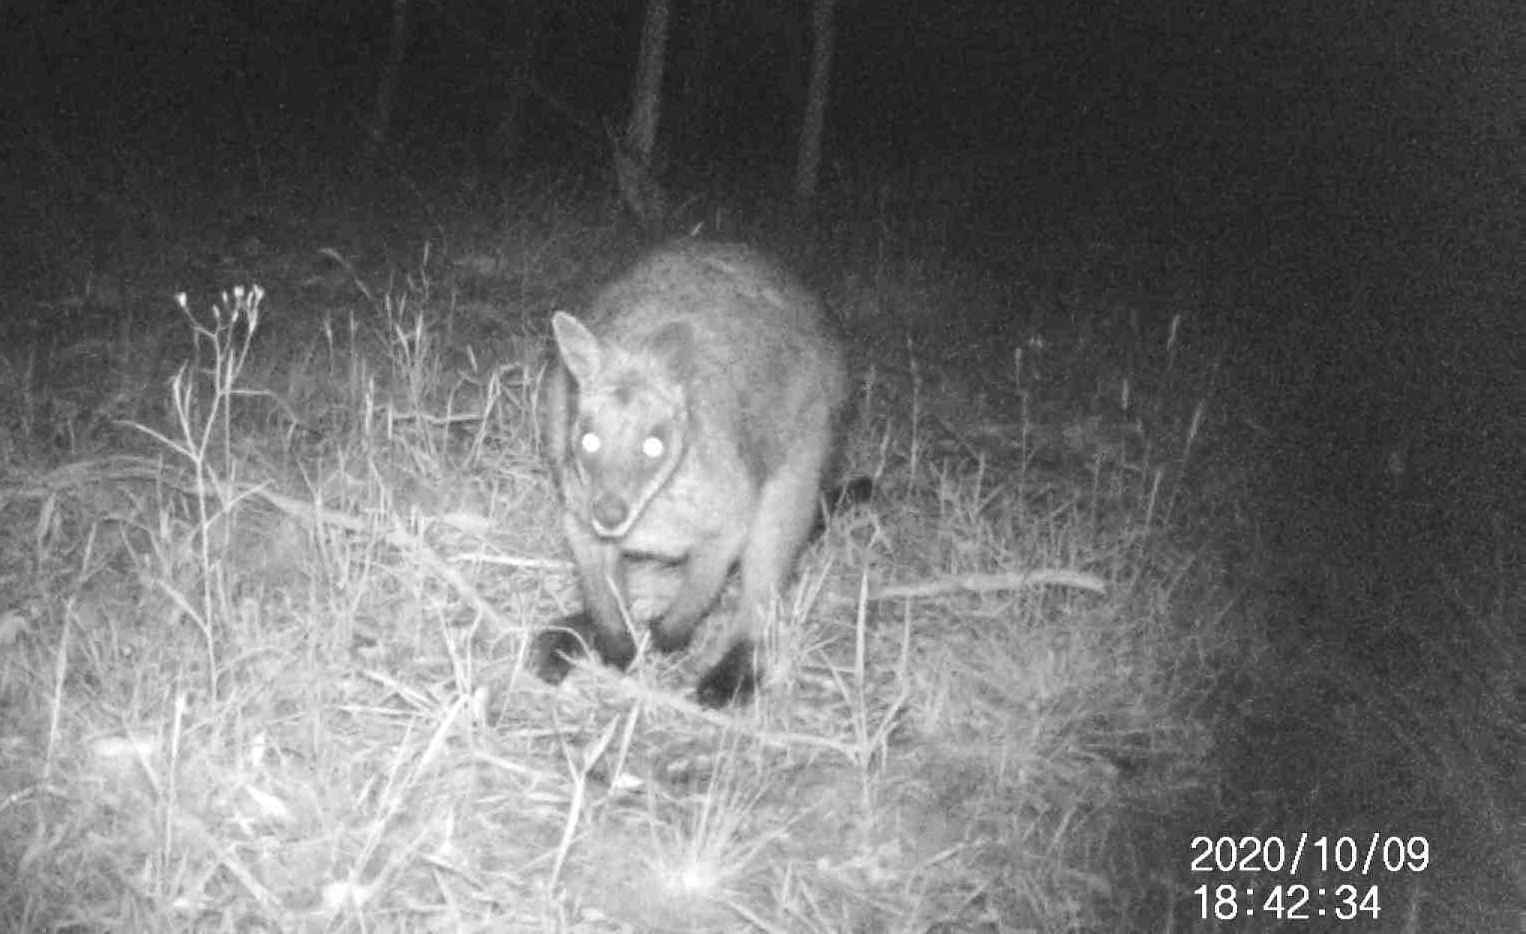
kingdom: Animalia
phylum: Chordata
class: Mammalia
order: Diprotodontia
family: Macropodidae
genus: Wallabia
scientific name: Wallabia bicolor
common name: Swamp wallaby
